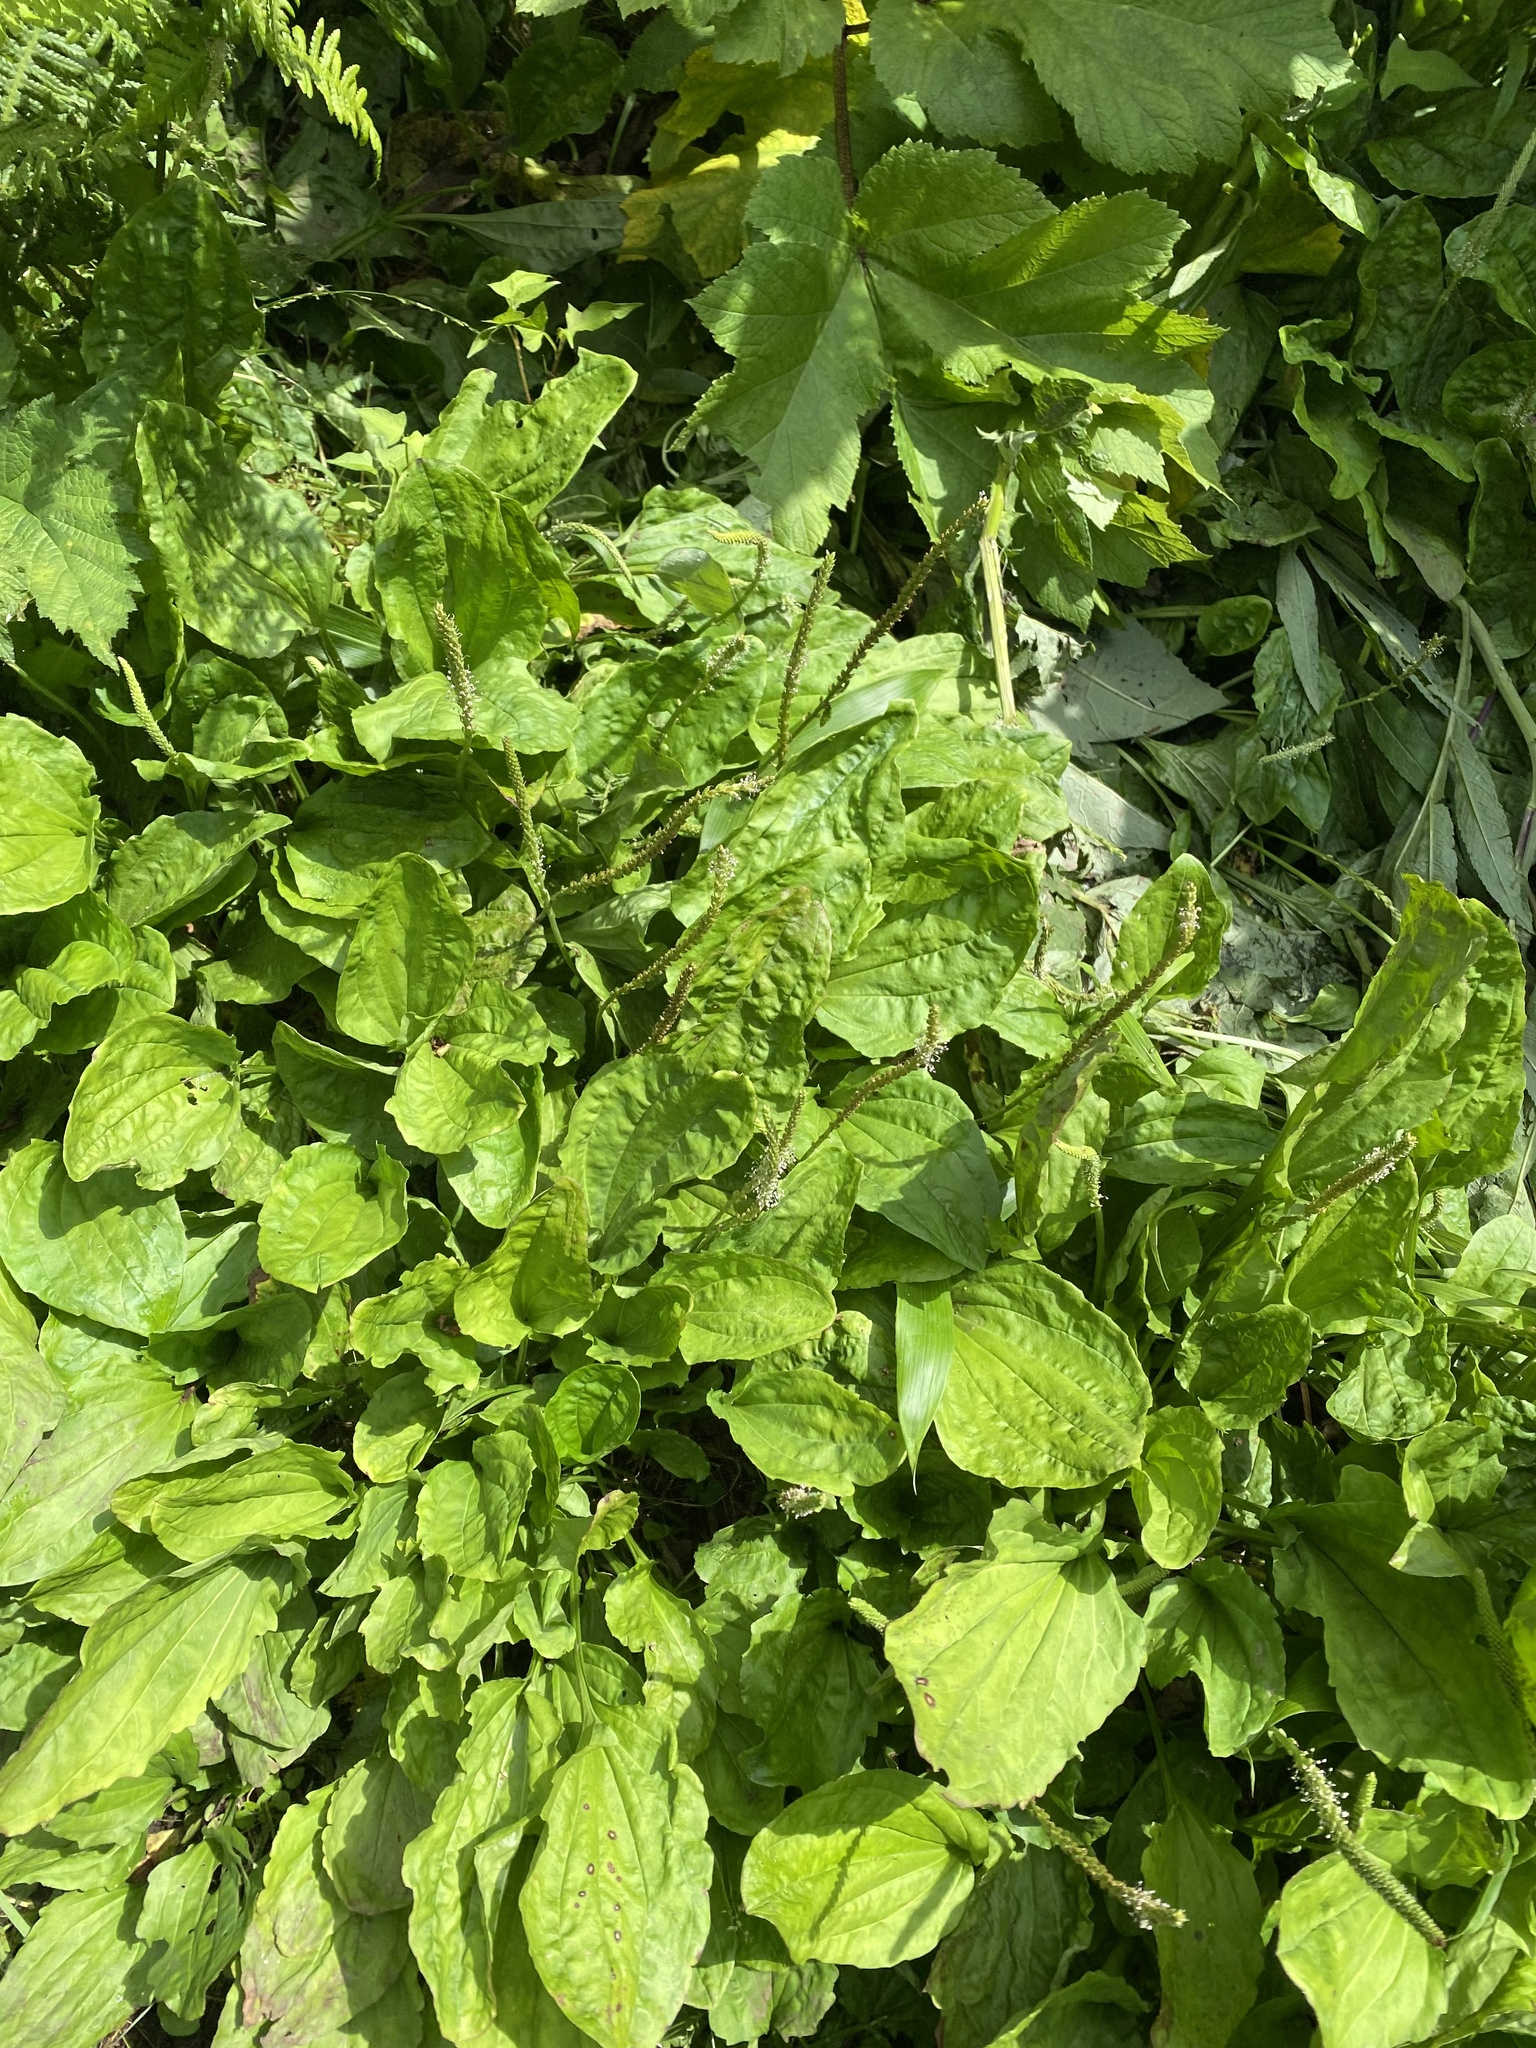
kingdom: Plantae
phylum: Tracheophyta
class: Magnoliopsida
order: Lamiales
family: Plantaginaceae
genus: Plantago
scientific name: Plantago major
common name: Common plantain
